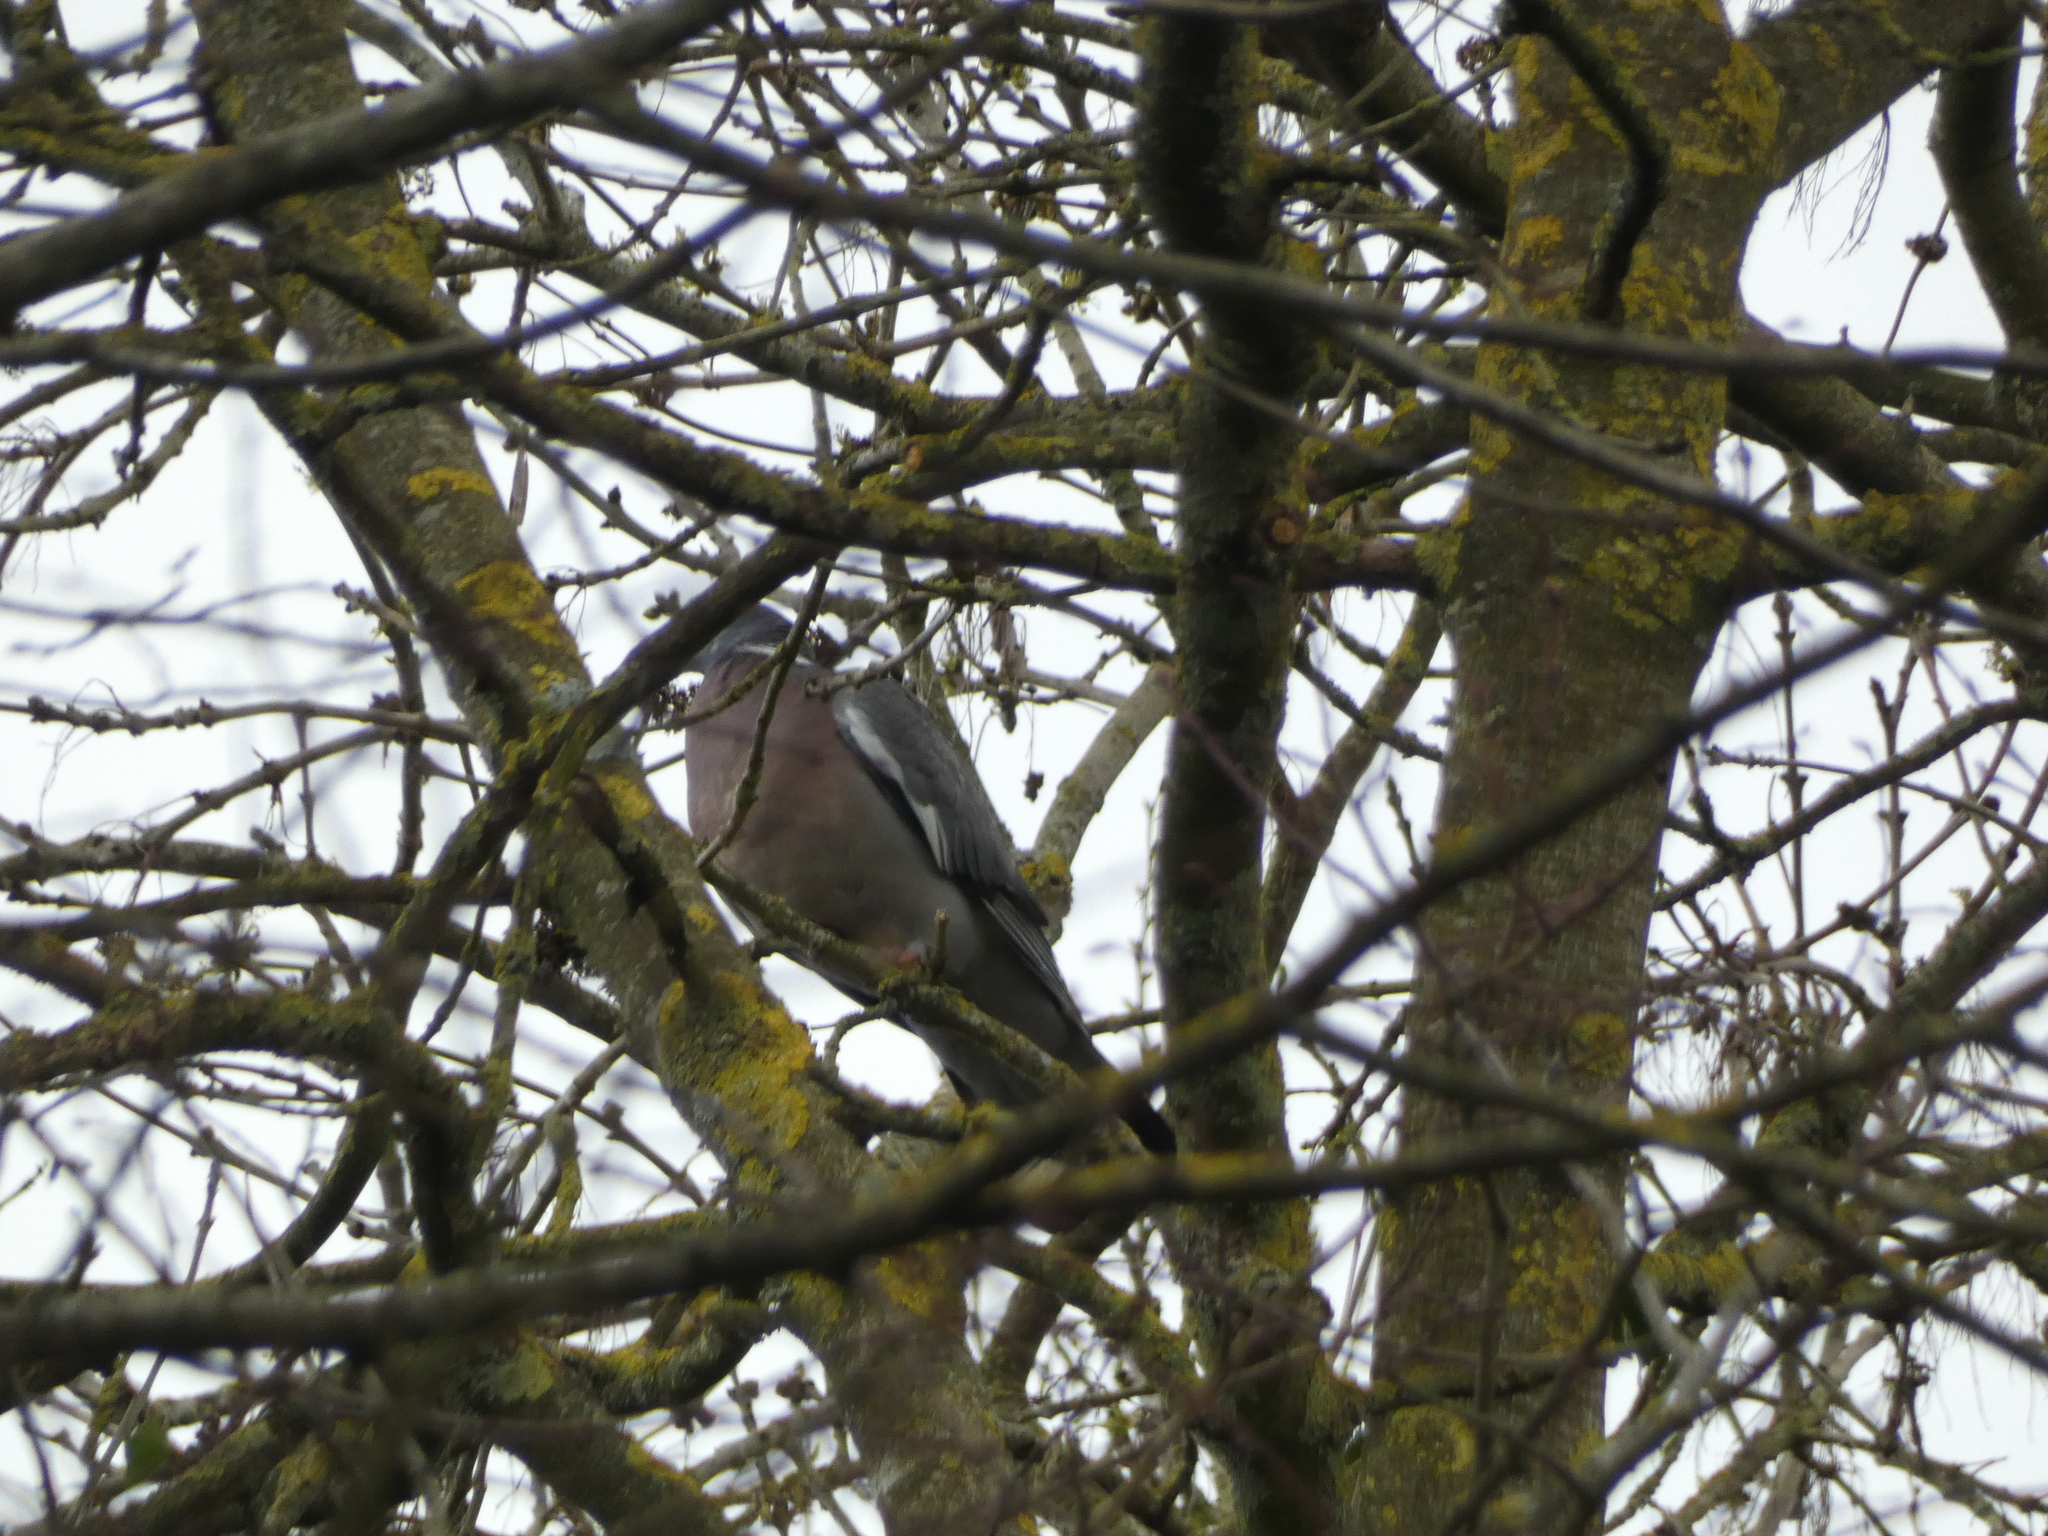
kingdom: Animalia
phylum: Chordata
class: Aves
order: Columbiformes
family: Columbidae
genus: Columba
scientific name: Columba palumbus
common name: Common wood pigeon
